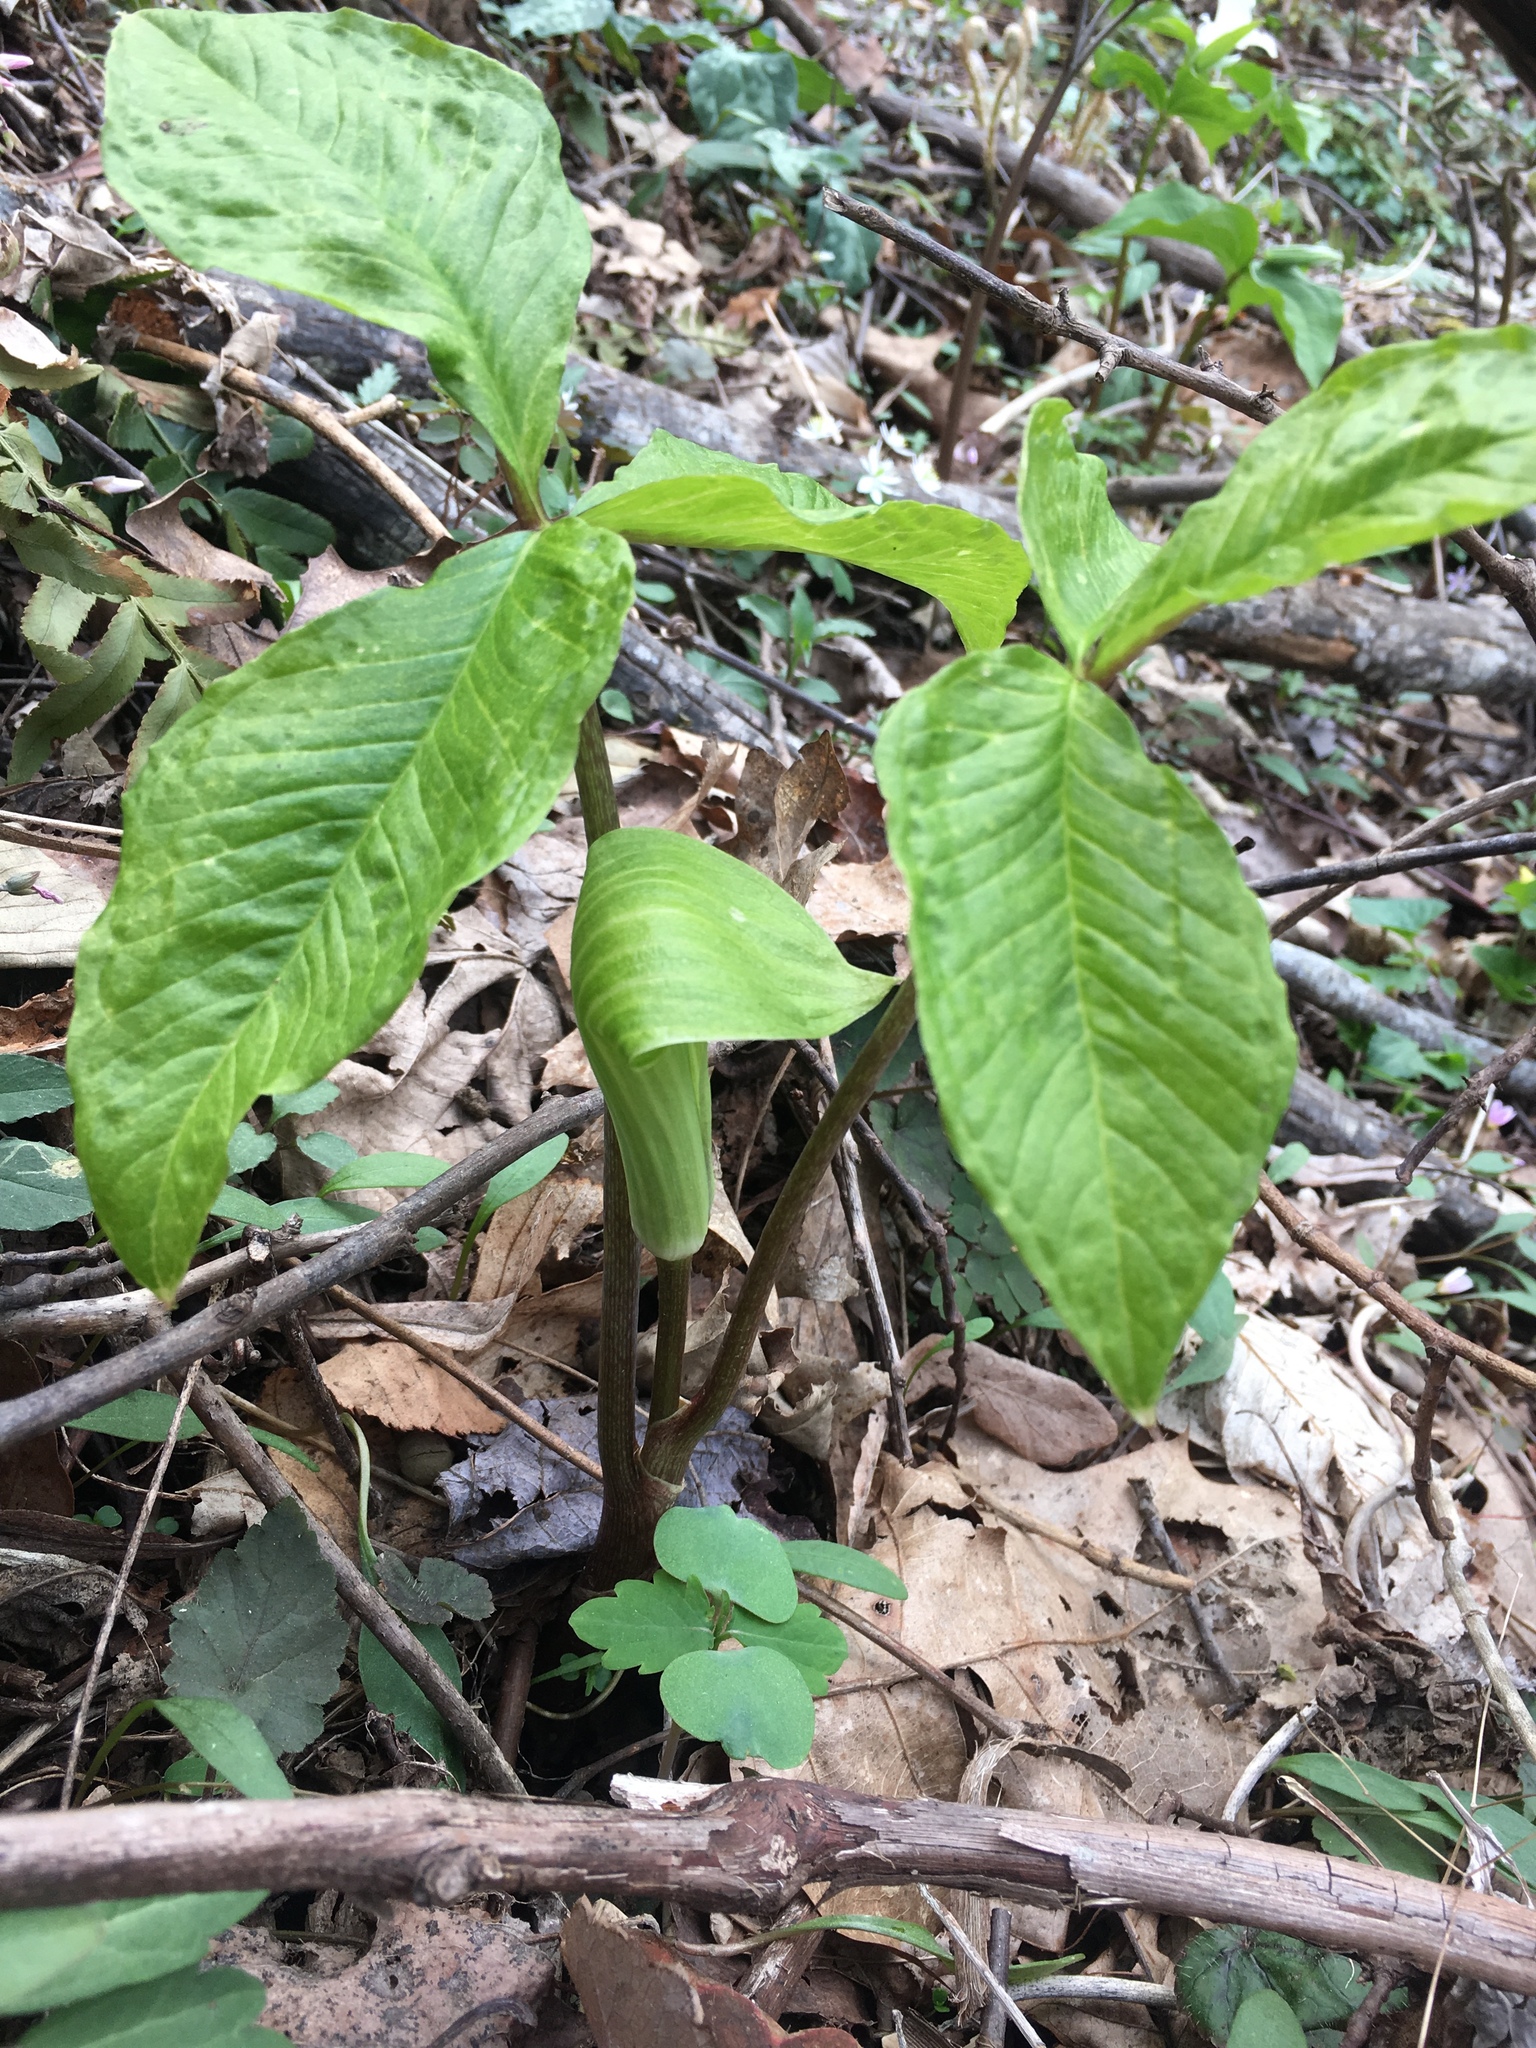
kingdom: Plantae
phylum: Tracheophyta
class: Liliopsida
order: Alismatales
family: Araceae
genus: Arisaema
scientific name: Arisaema triphyllum
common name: Jack-in-the-pulpit
